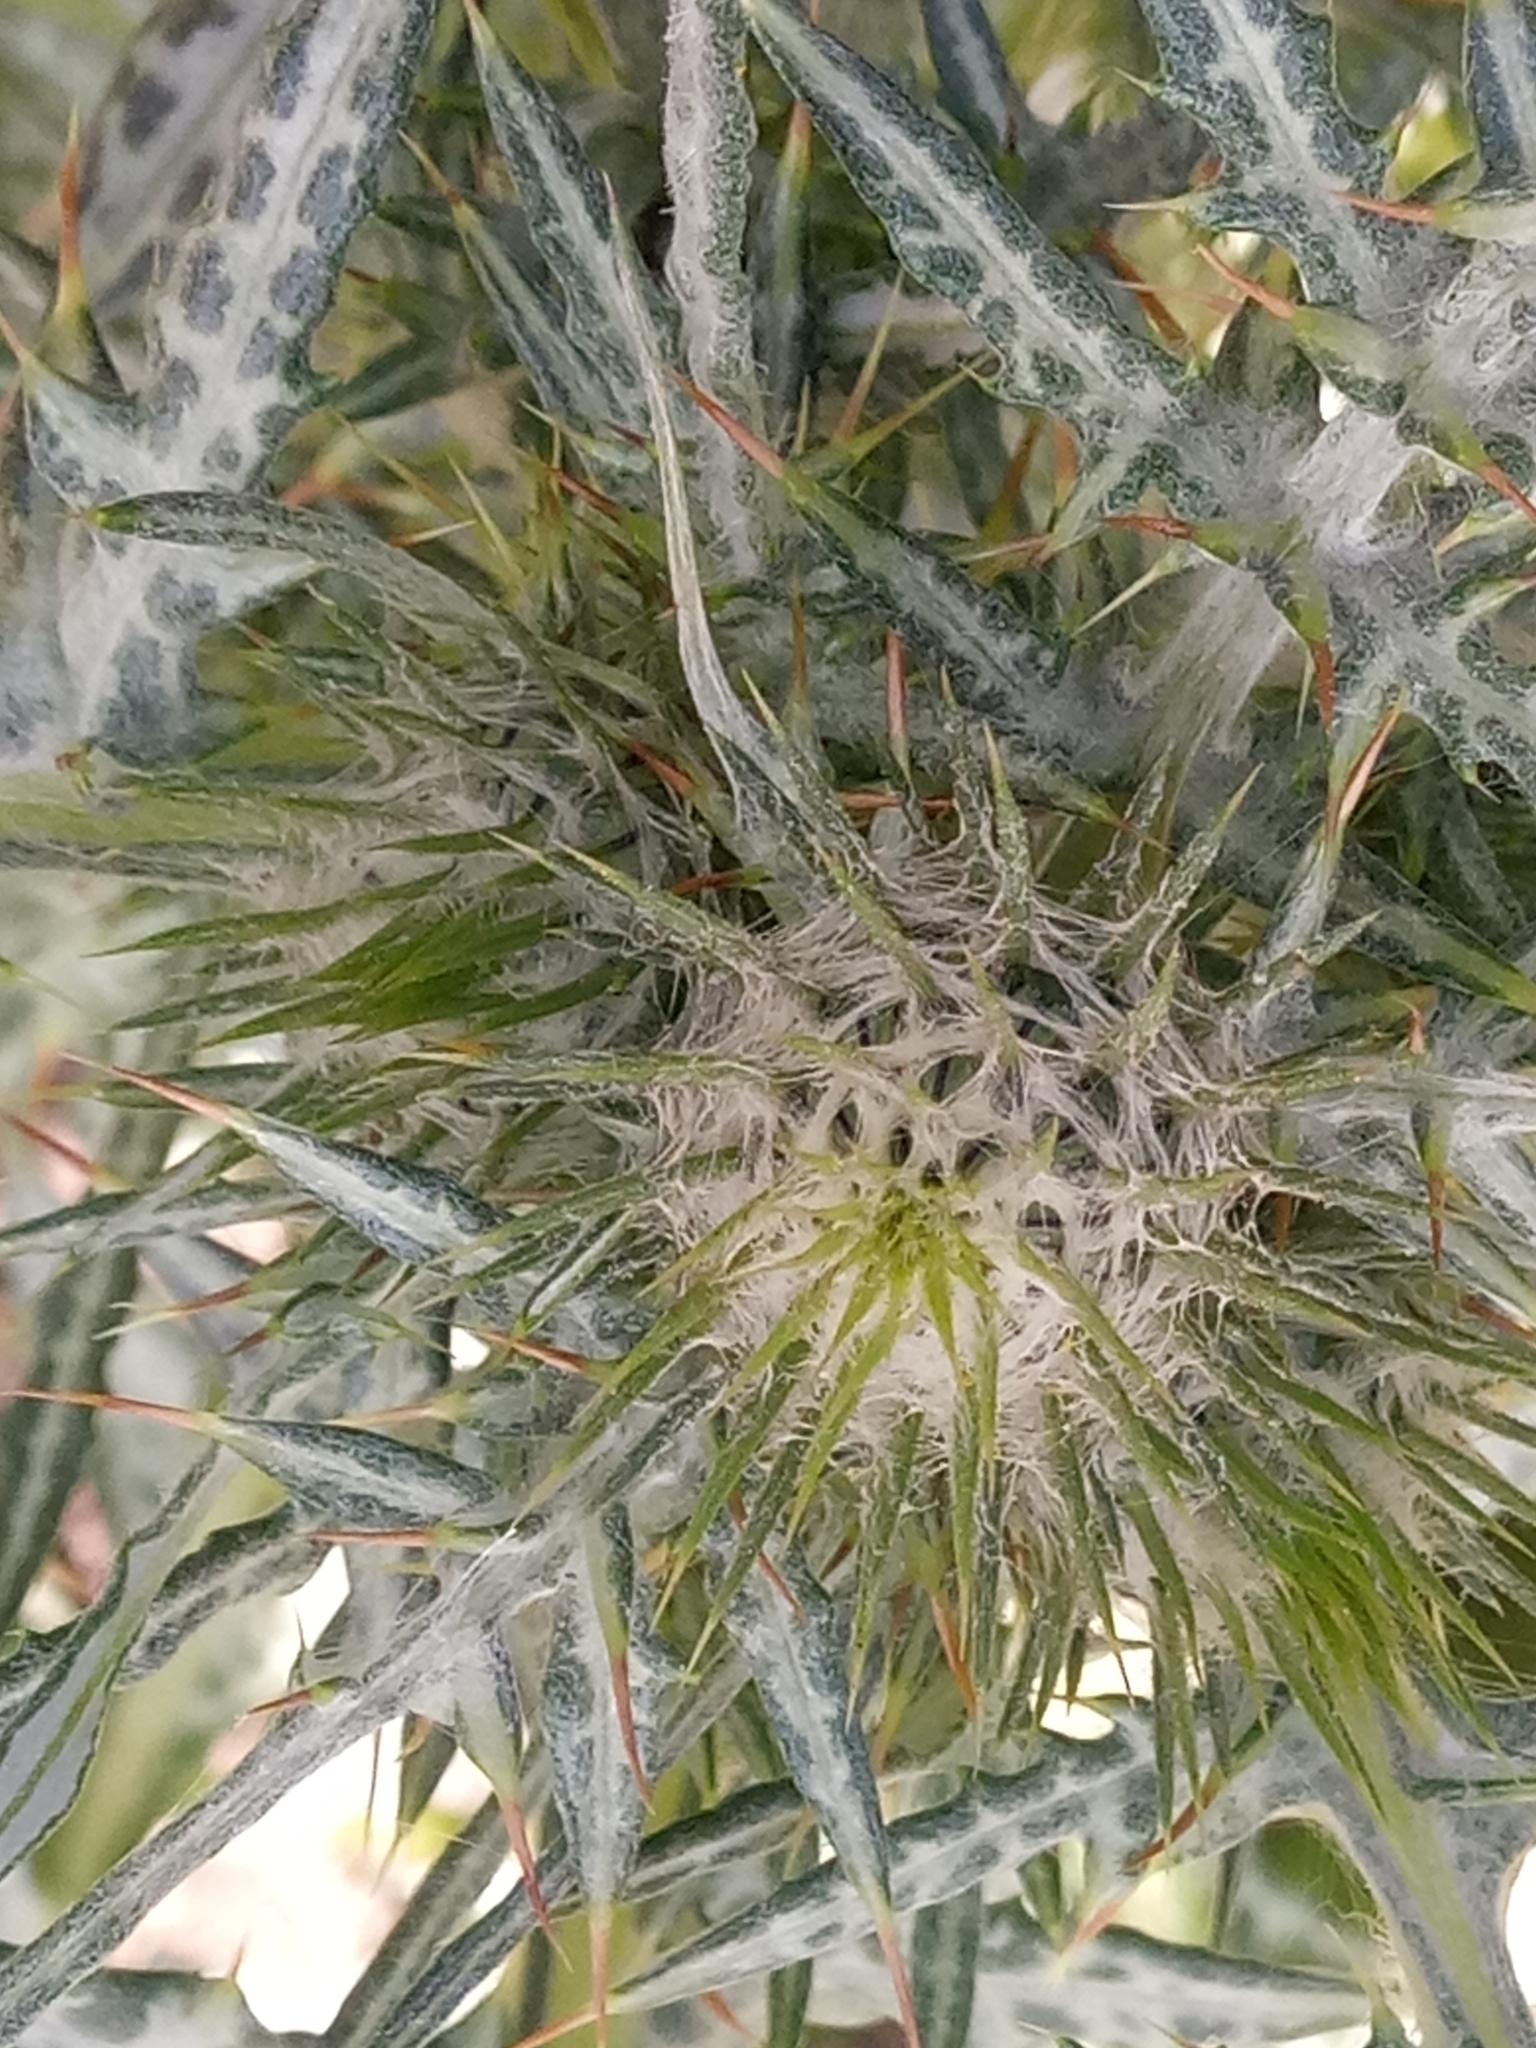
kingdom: Plantae
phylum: Tracheophyta
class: Magnoliopsida
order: Asterales
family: Asteraceae
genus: Galactites
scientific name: Galactites tomentosa
